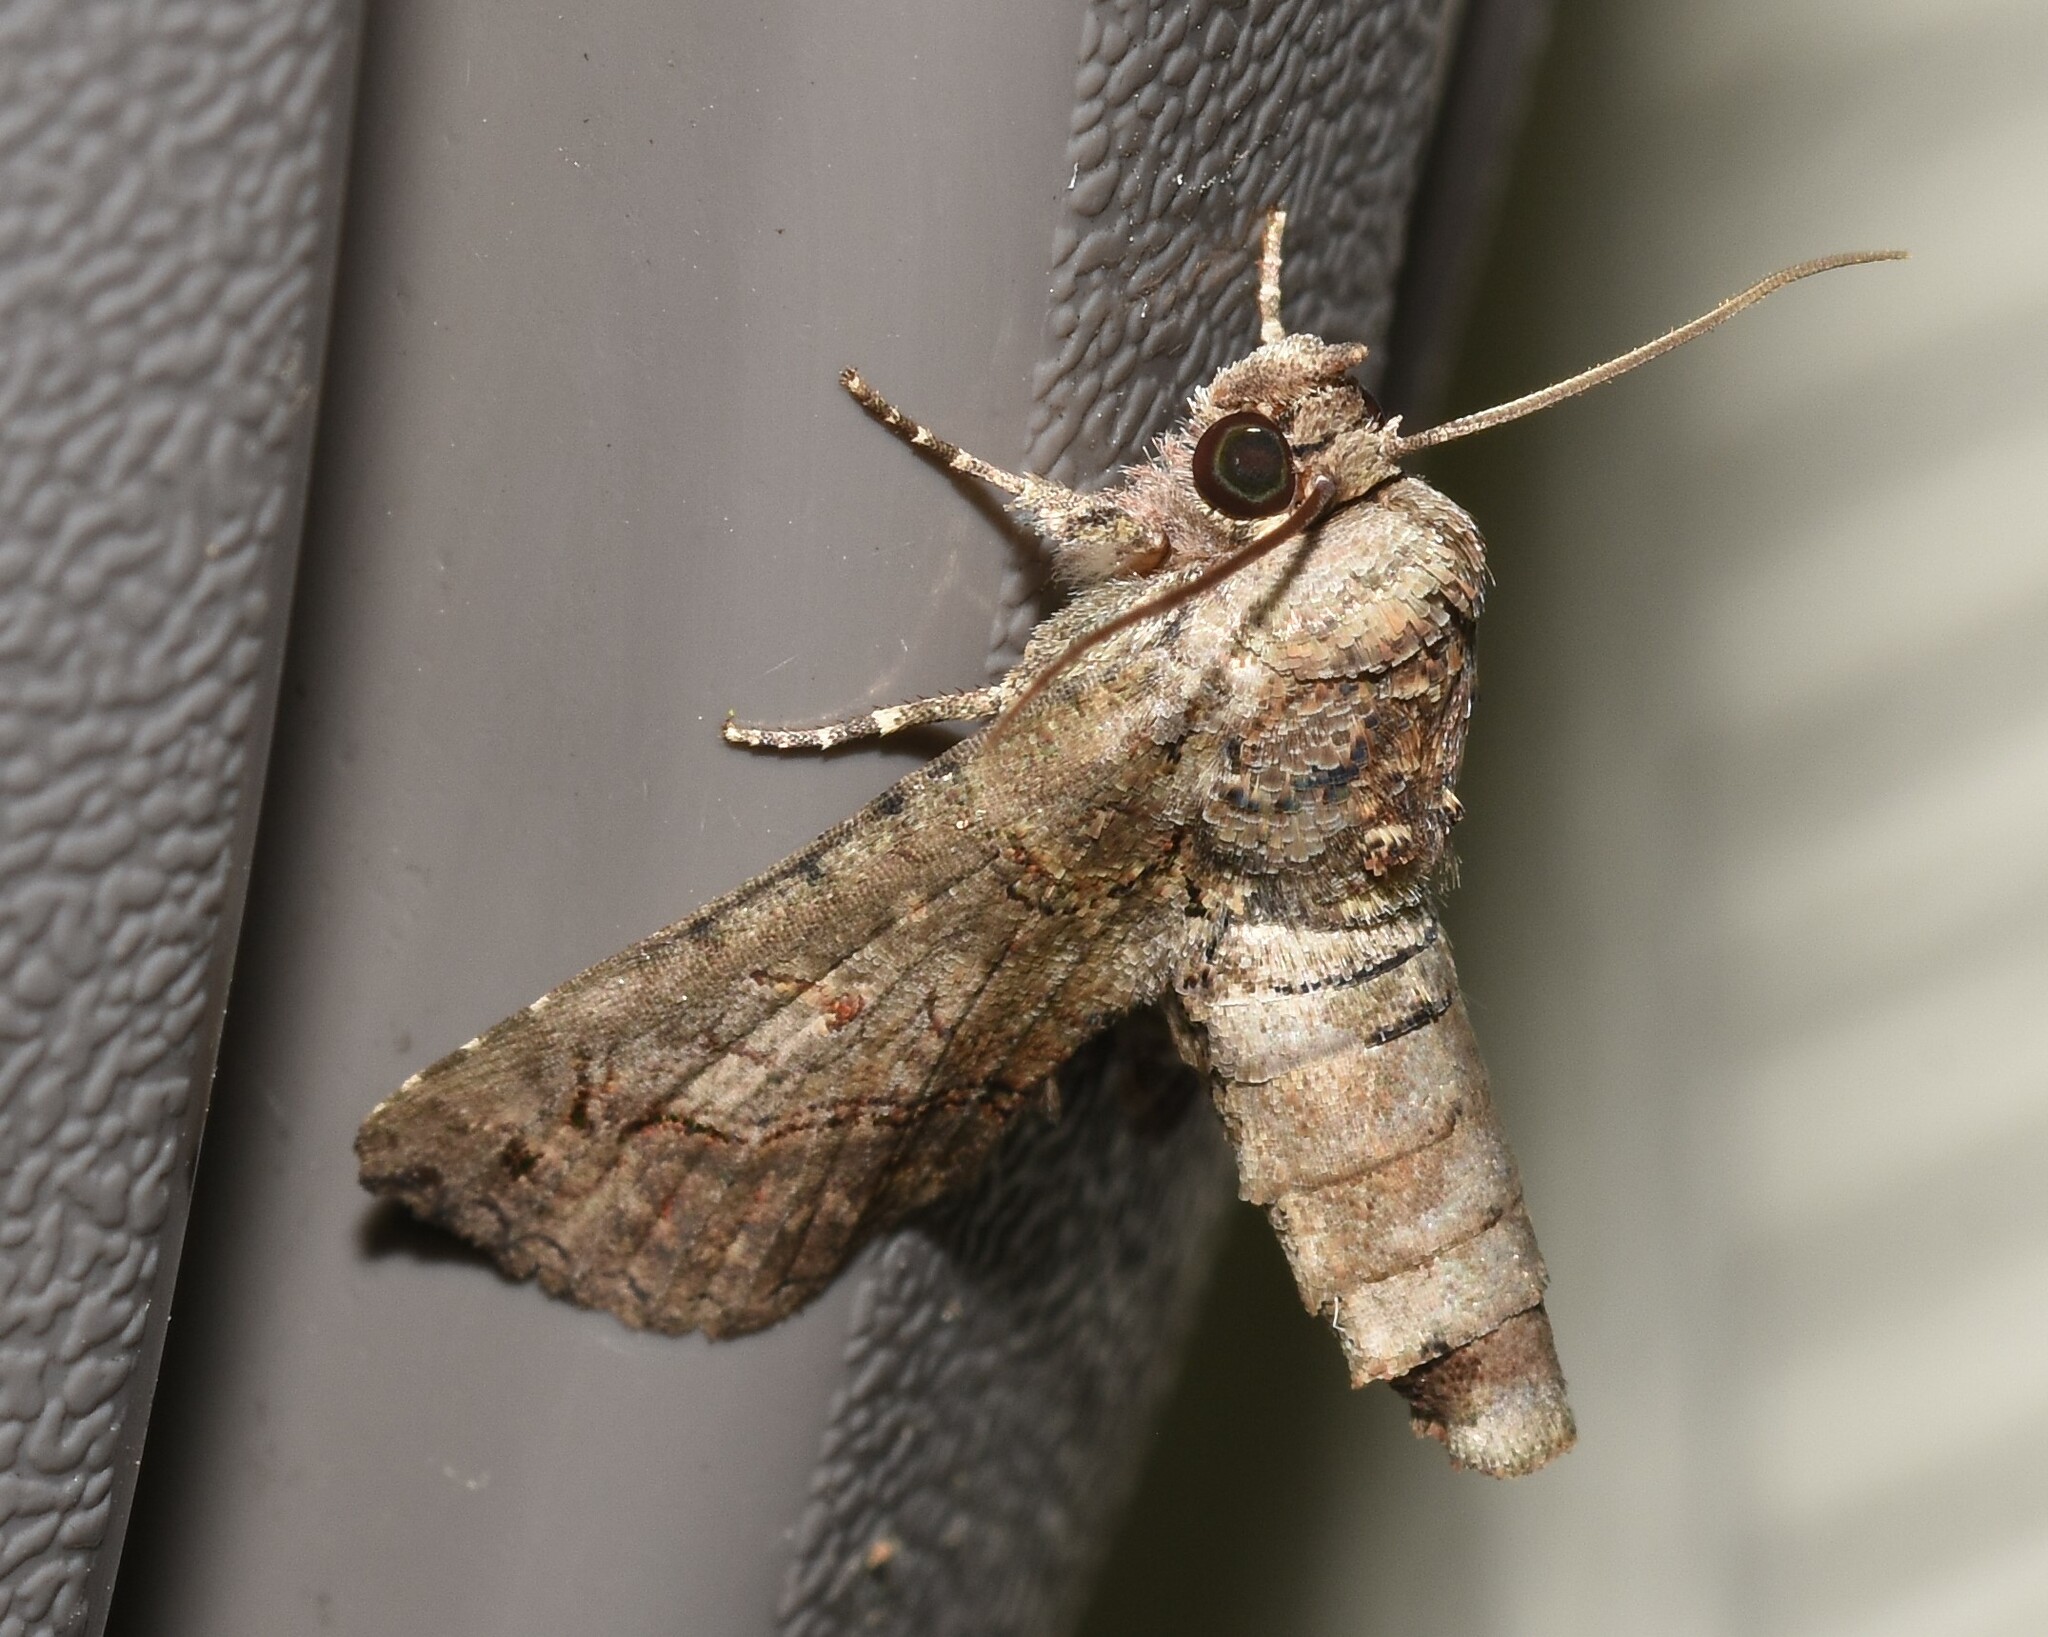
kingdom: Animalia
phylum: Arthropoda
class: Insecta
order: Lepidoptera
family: Euteliidae
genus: Paectes
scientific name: Paectes abrostoloides
